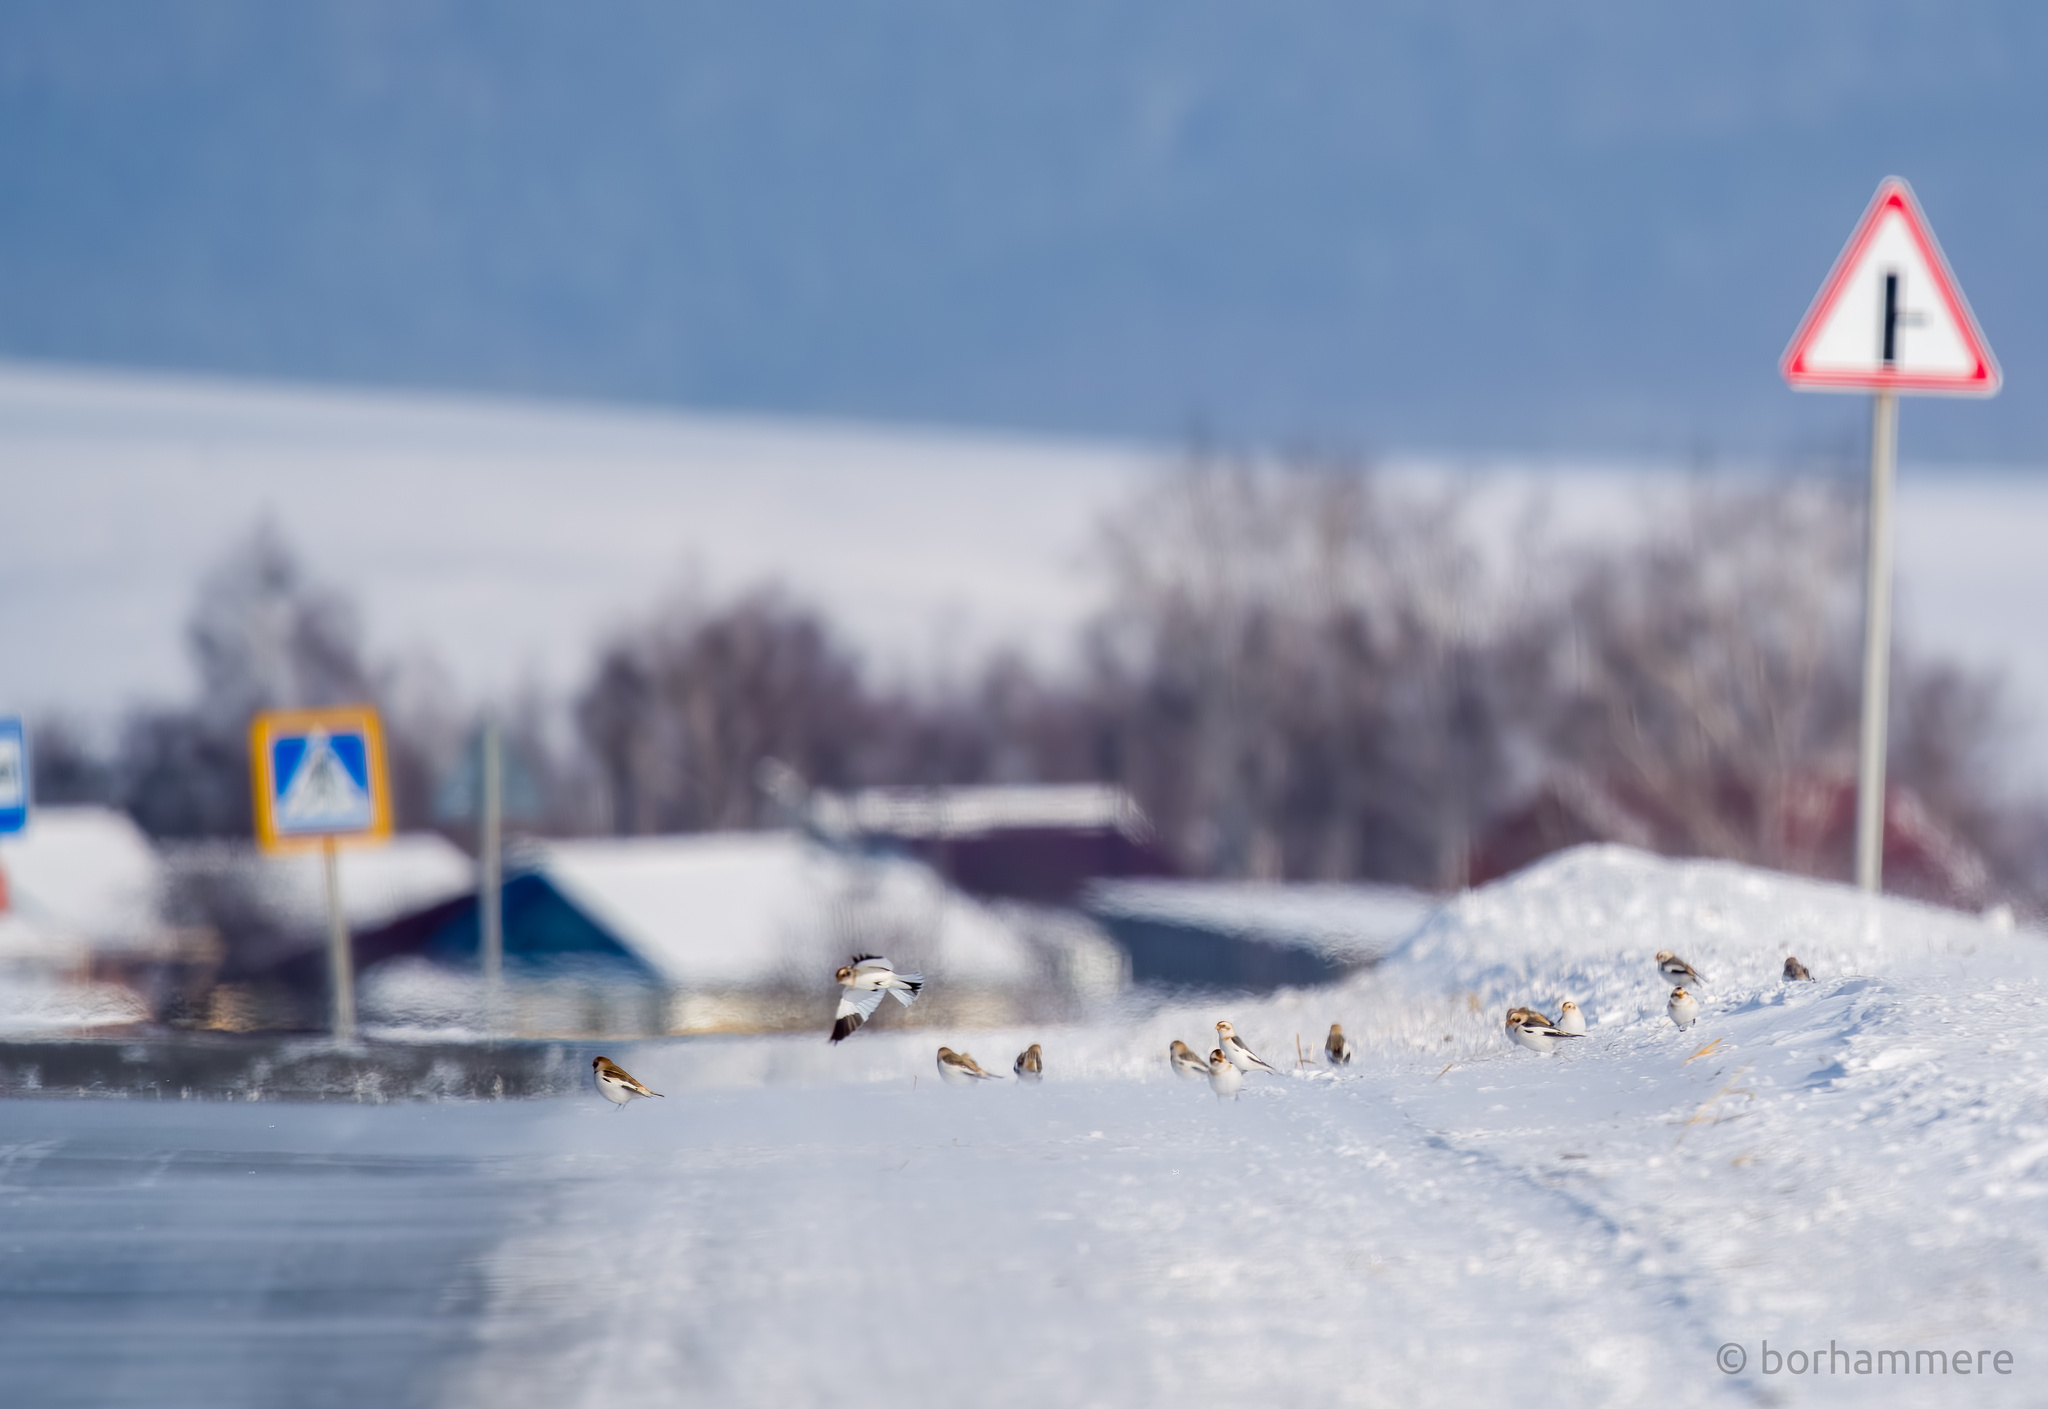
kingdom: Animalia
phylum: Chordata
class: Aves
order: Passeriformes
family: Calcariidae
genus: Plectrophenax
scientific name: Plectrophenax nivalis
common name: Snow bunting
